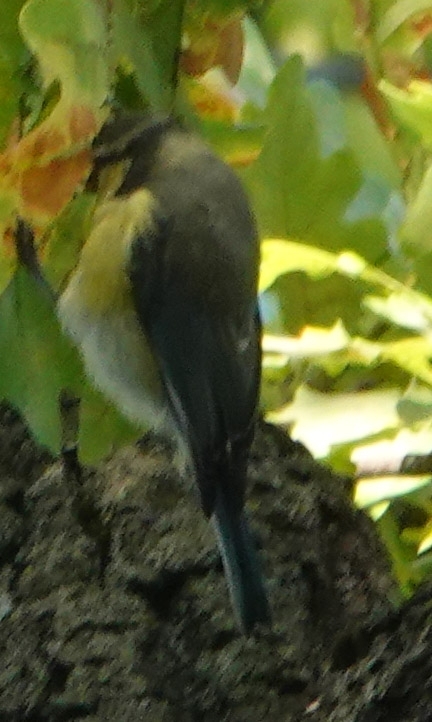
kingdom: Animalia
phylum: Chordata
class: Aves
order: Passeriformes
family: Paridae
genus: Cyanistes
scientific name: Cyanistes caeruleus
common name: Eurasian blue tit
